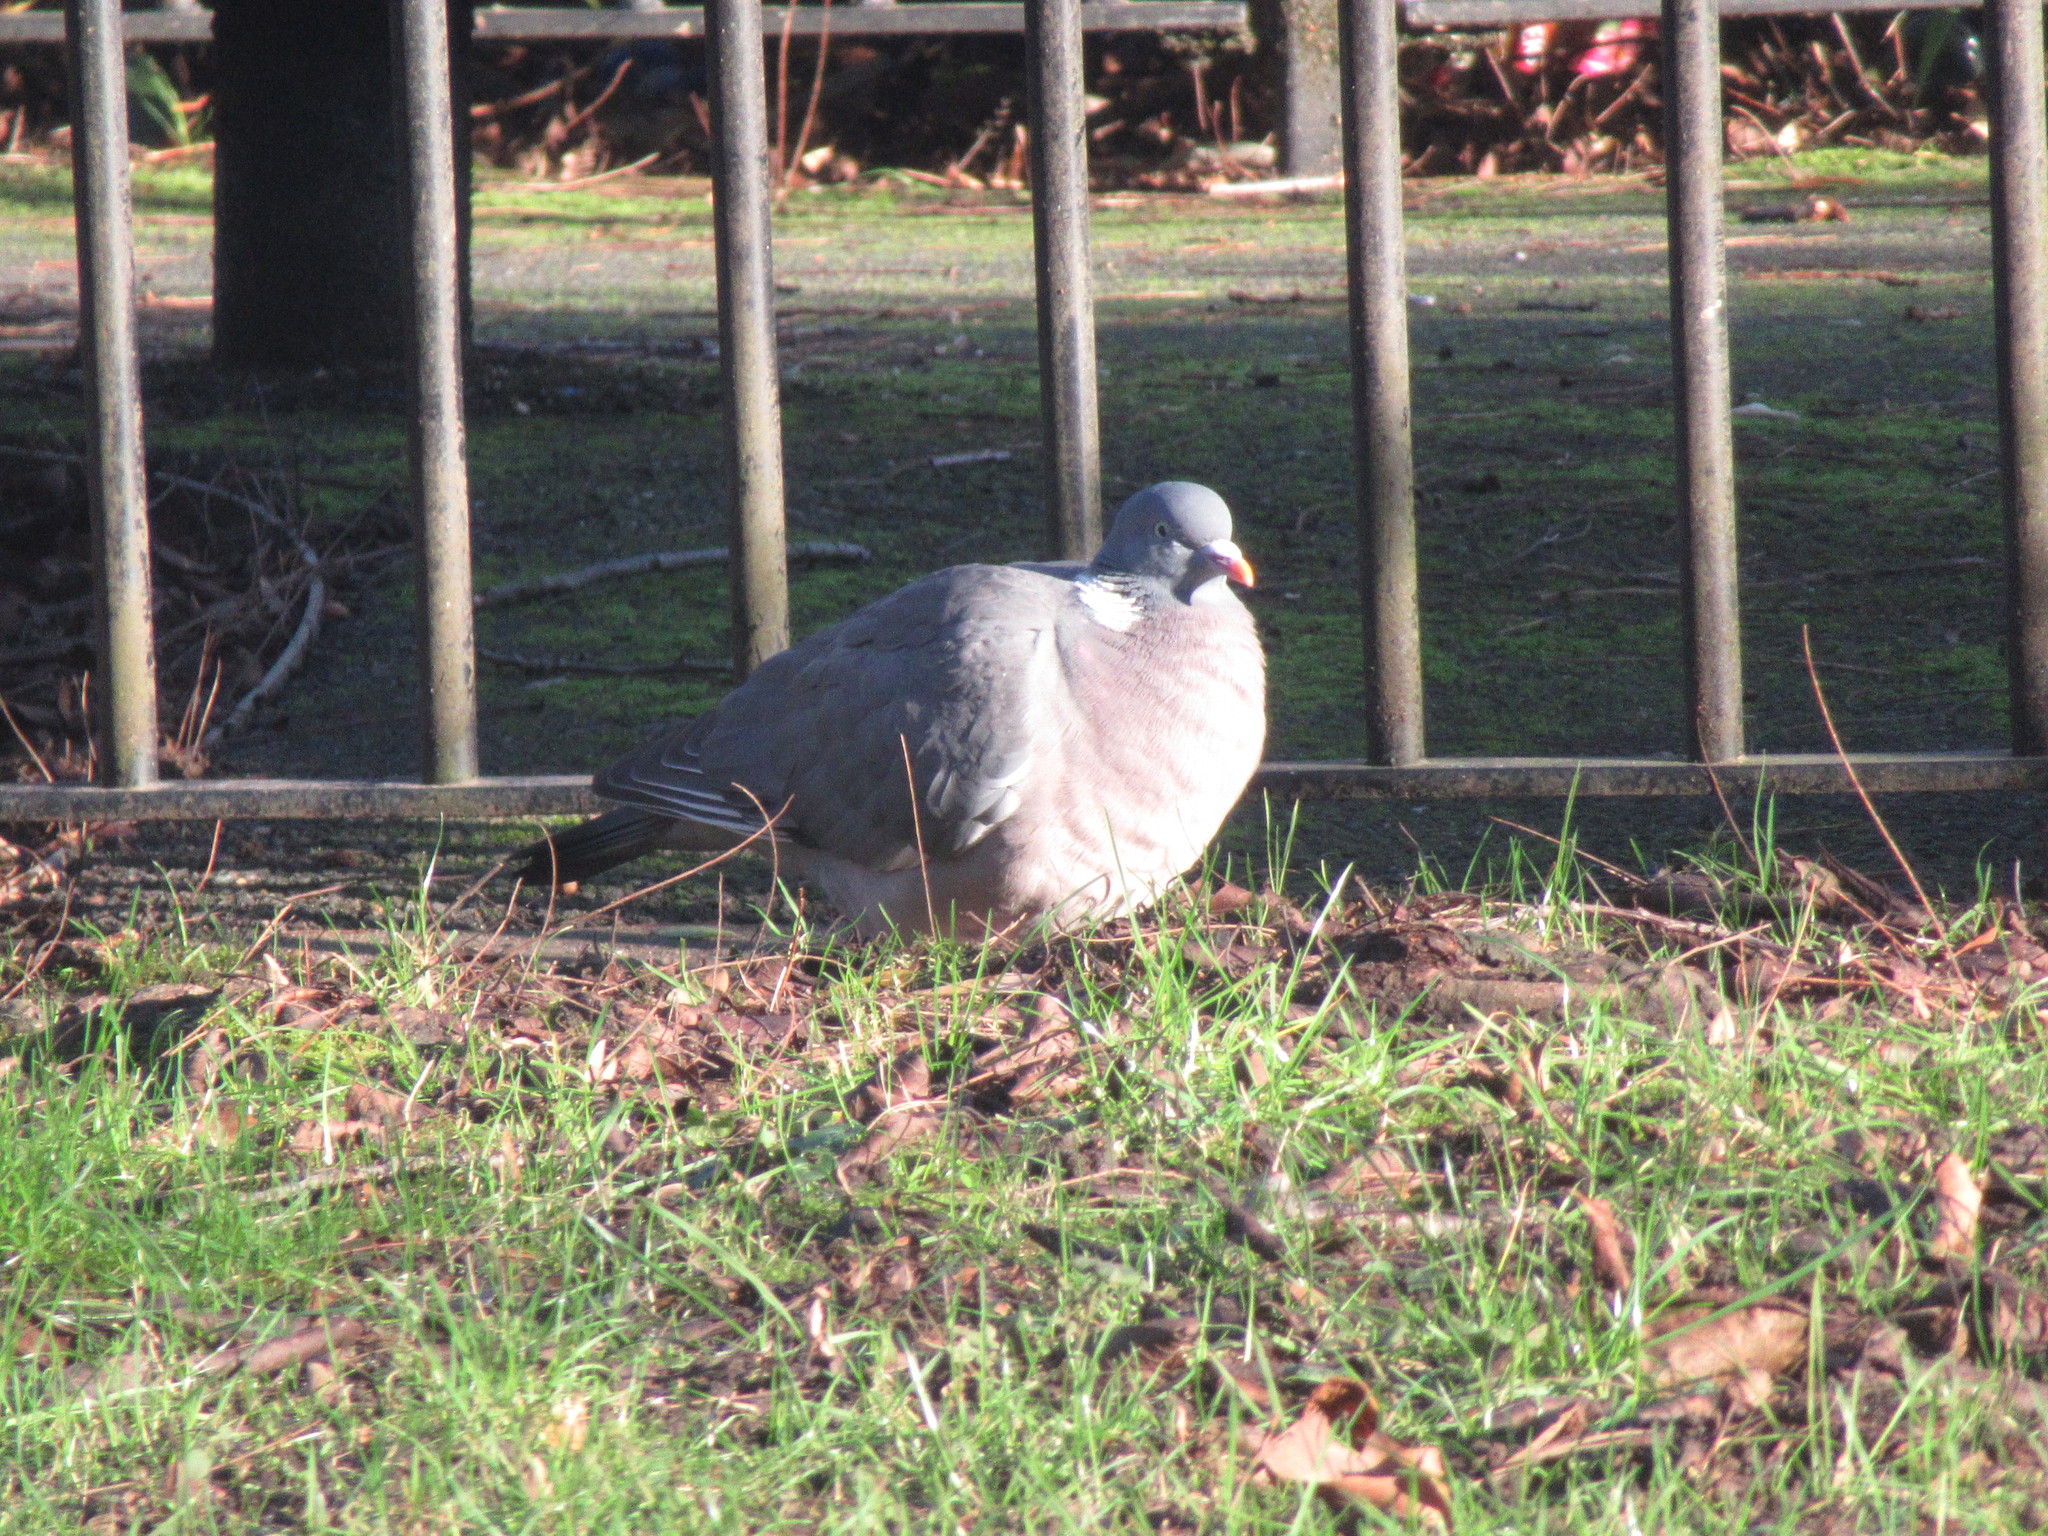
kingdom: Animalia
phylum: Chordata
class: Aves
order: Columbiformes
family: Columbidae
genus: Columba
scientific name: Columba palumbus
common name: Common wood pigeon
